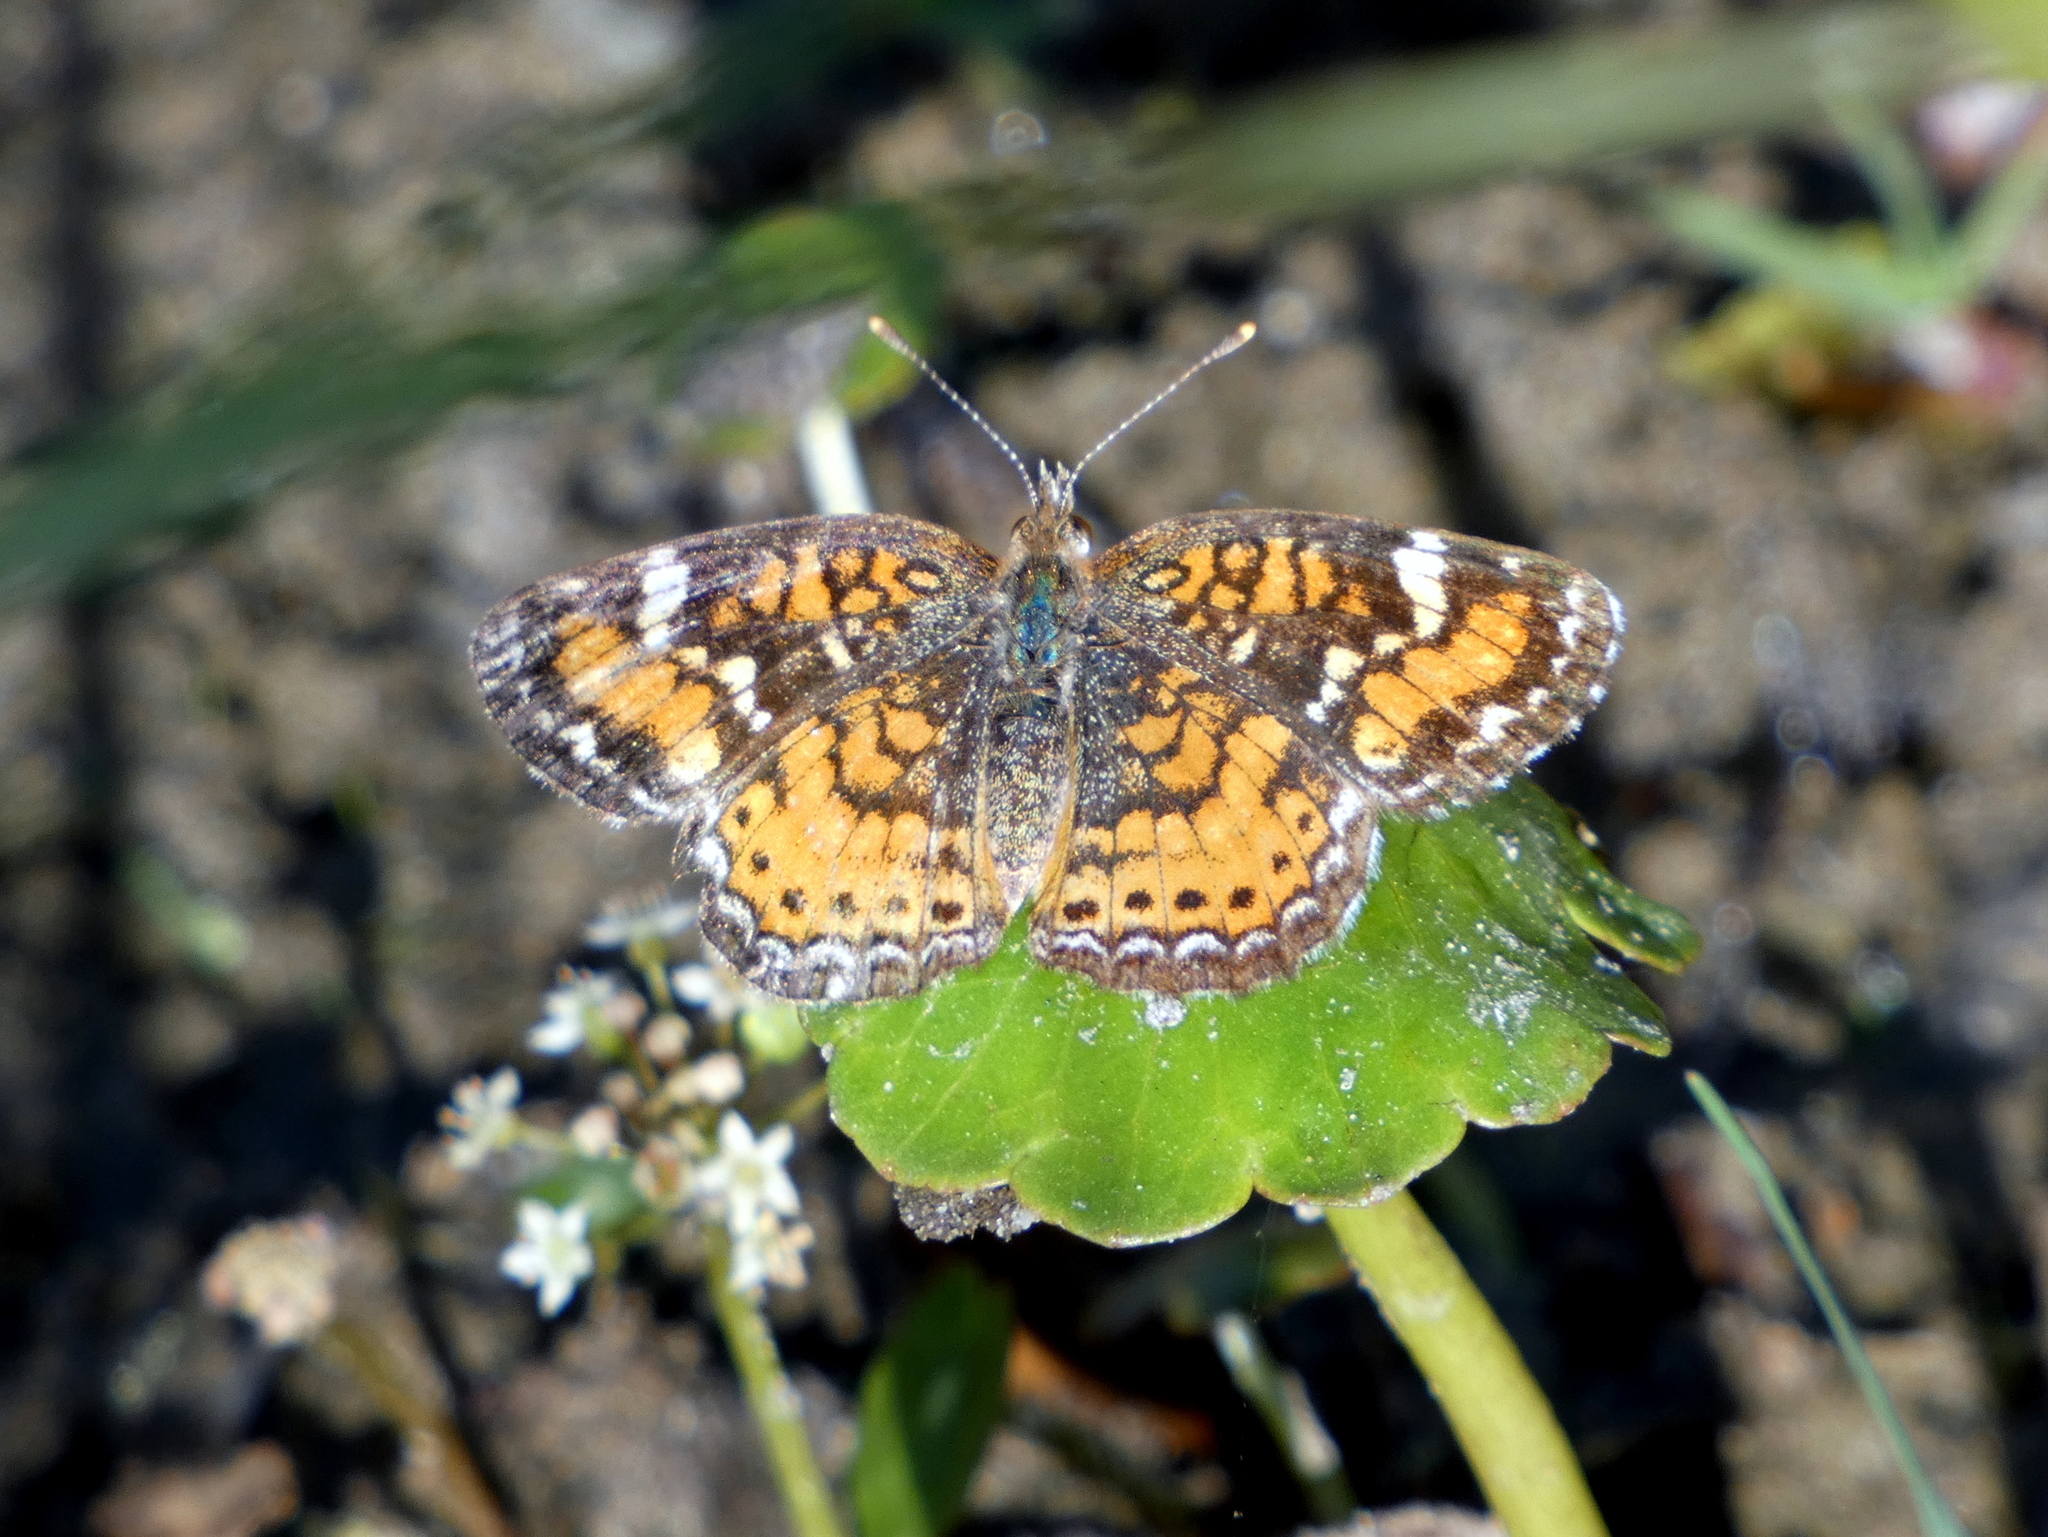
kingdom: Animalia
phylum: Arthropoda
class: Insecta
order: Lepidoptera
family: Nymphalidae
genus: Phyciodes
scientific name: Phyciodes phaon
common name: Phaon crescent
